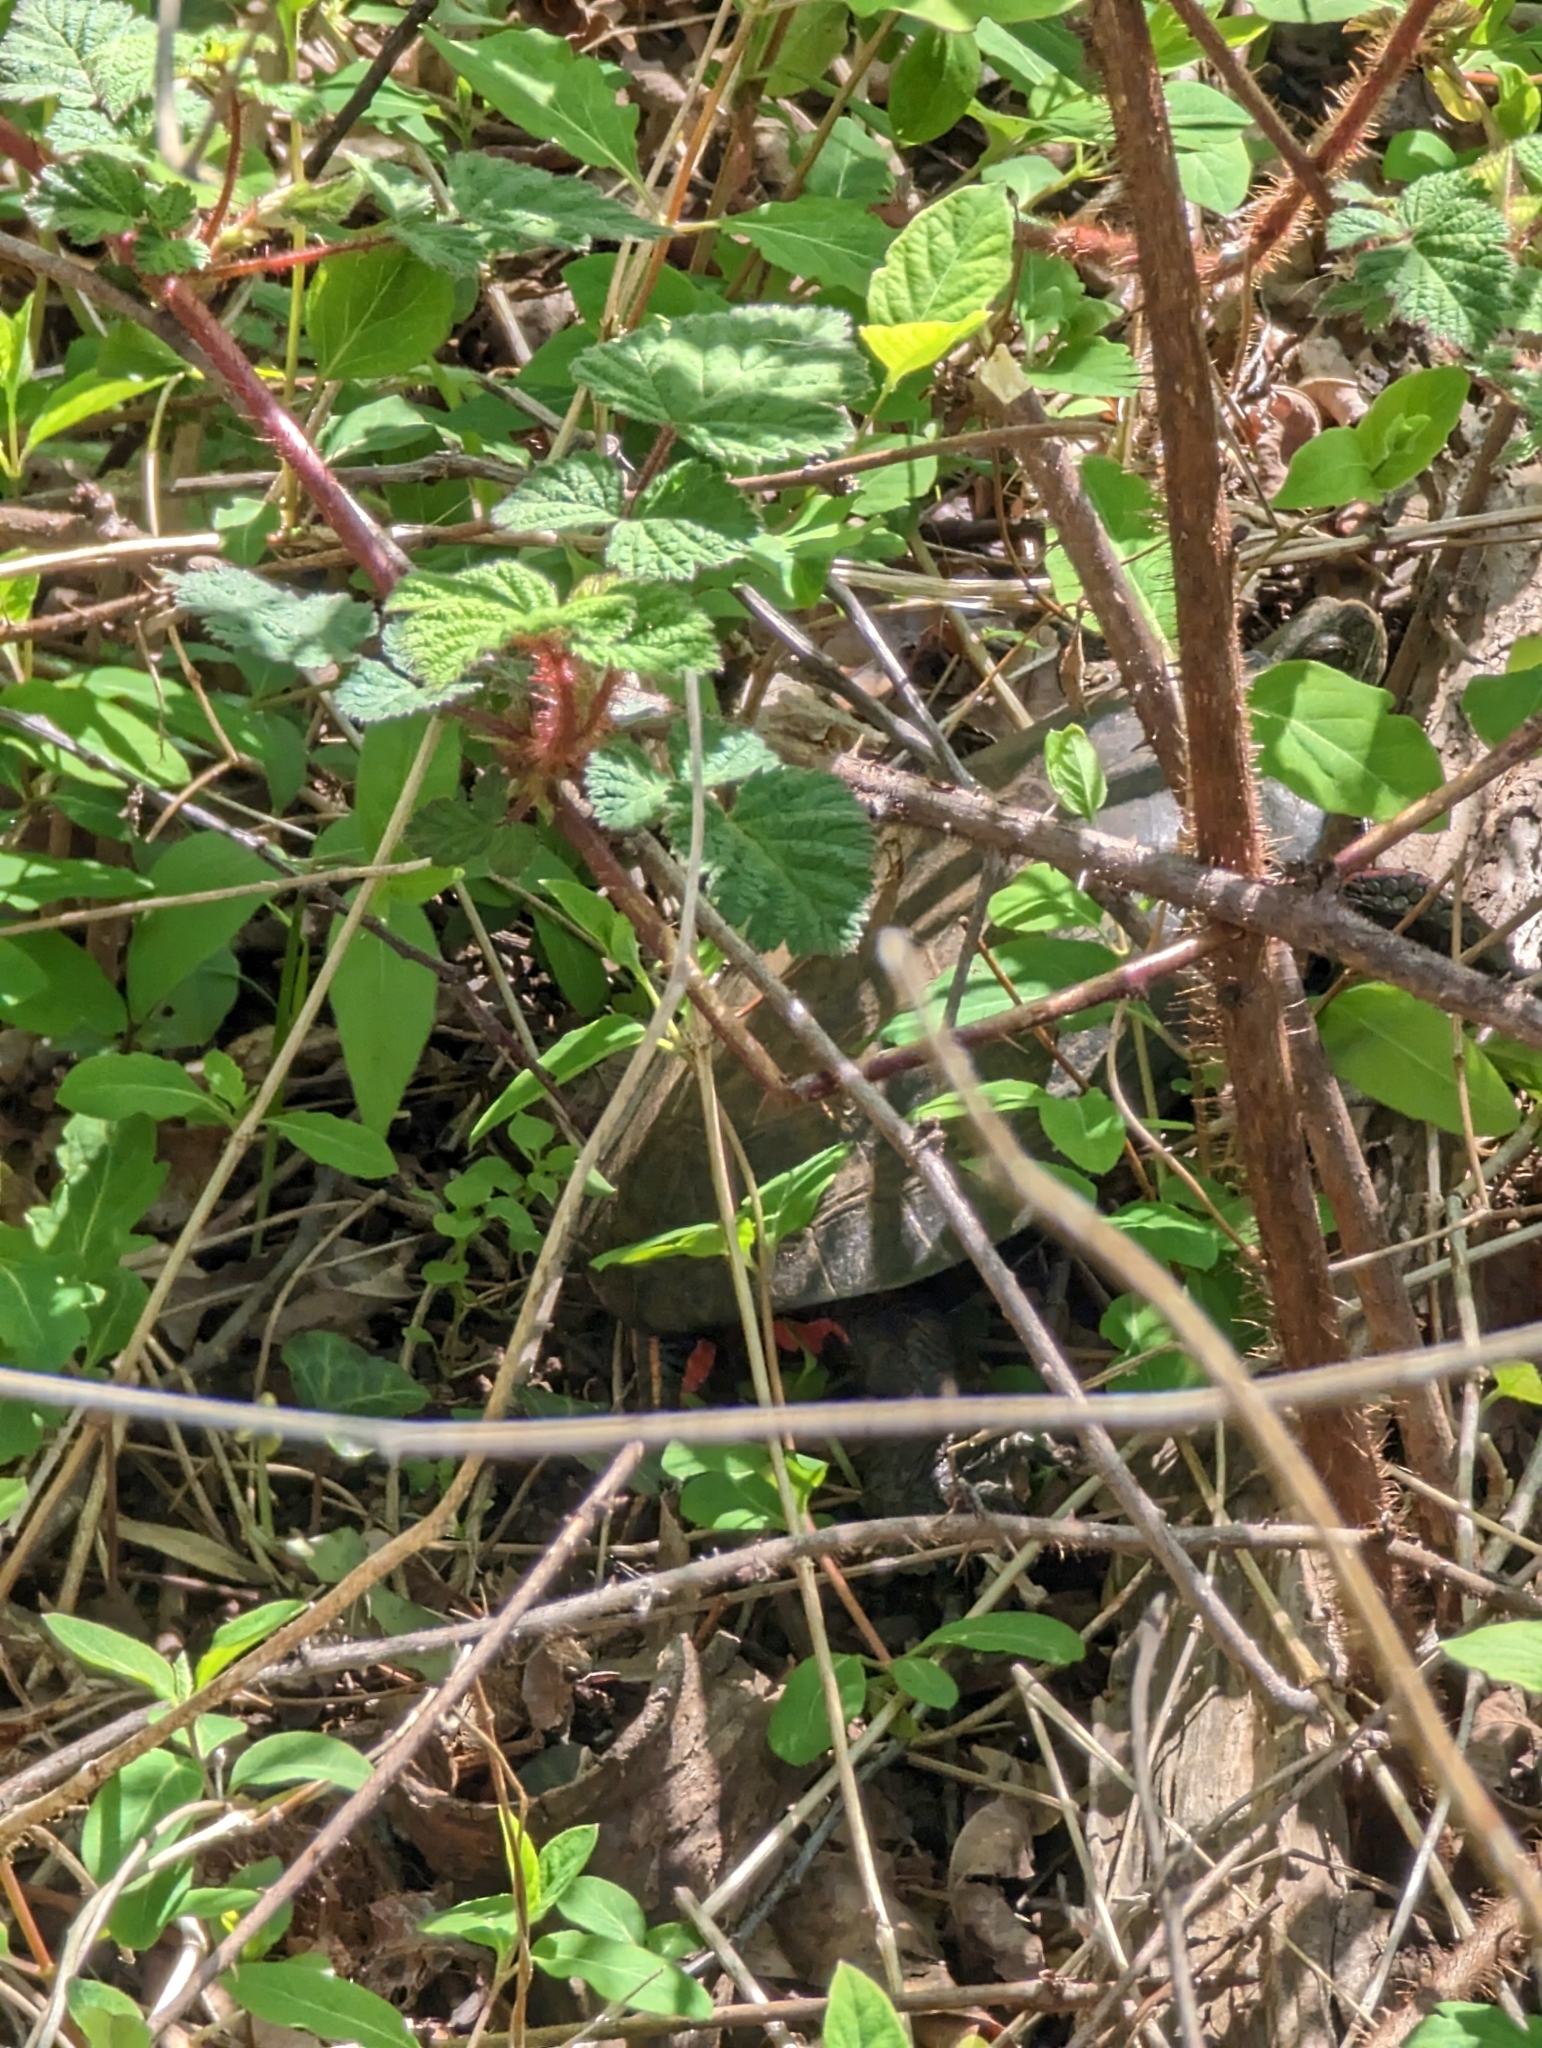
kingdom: Animalia
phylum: Chordata
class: Testudines
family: Emydidae
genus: Chrysemys
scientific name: Chrysemys picta
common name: Painted turtle
